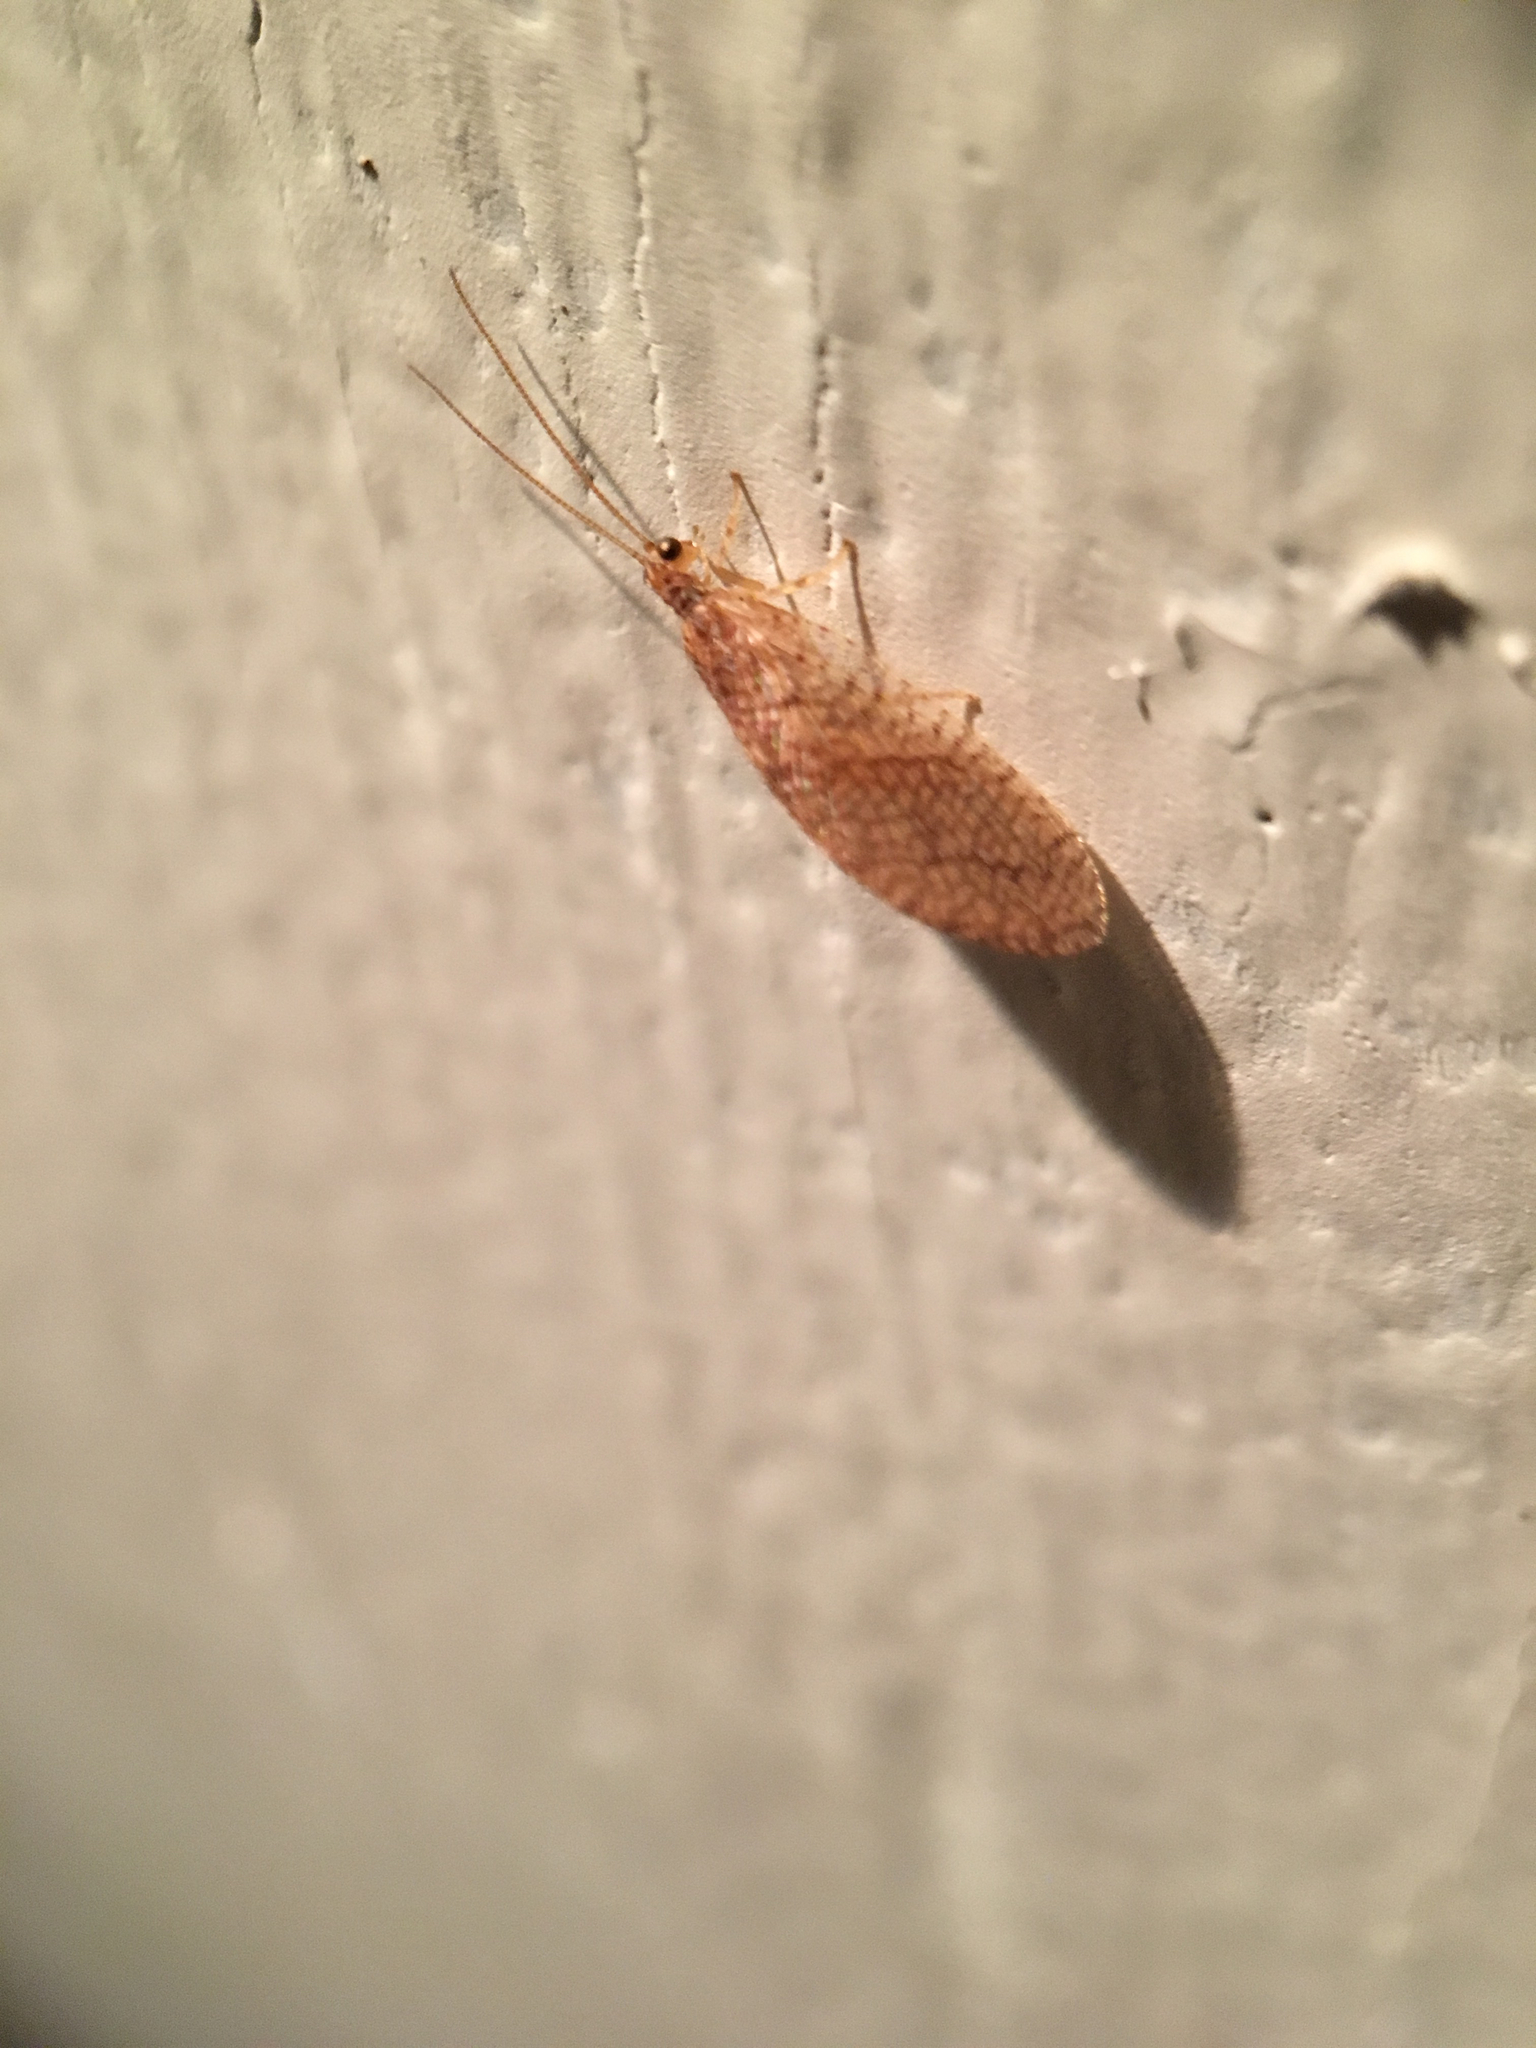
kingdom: Animalia
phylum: Arthropoda
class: Insecta
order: Neuroptera
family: Hemerobiidae
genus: Micromus
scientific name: Micromus posticus
